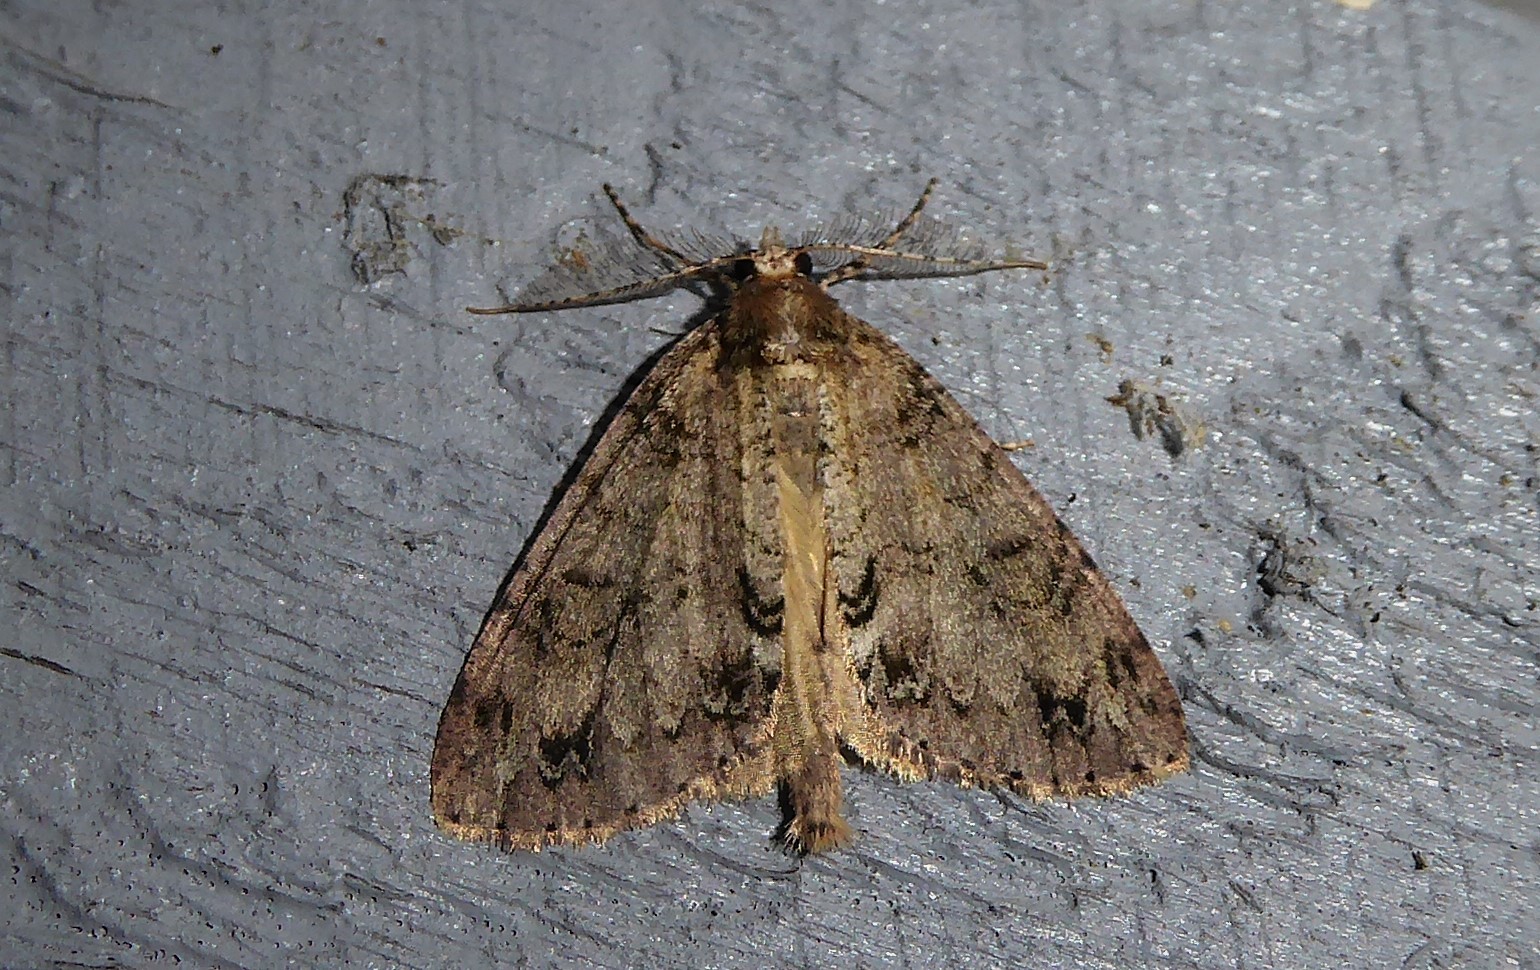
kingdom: Animalia
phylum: Arthropoda
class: Insecta
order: Lepidoptera
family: Geometridae
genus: Pseudocoremia
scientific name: Pseudocoremia suavis
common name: Common forest looper
